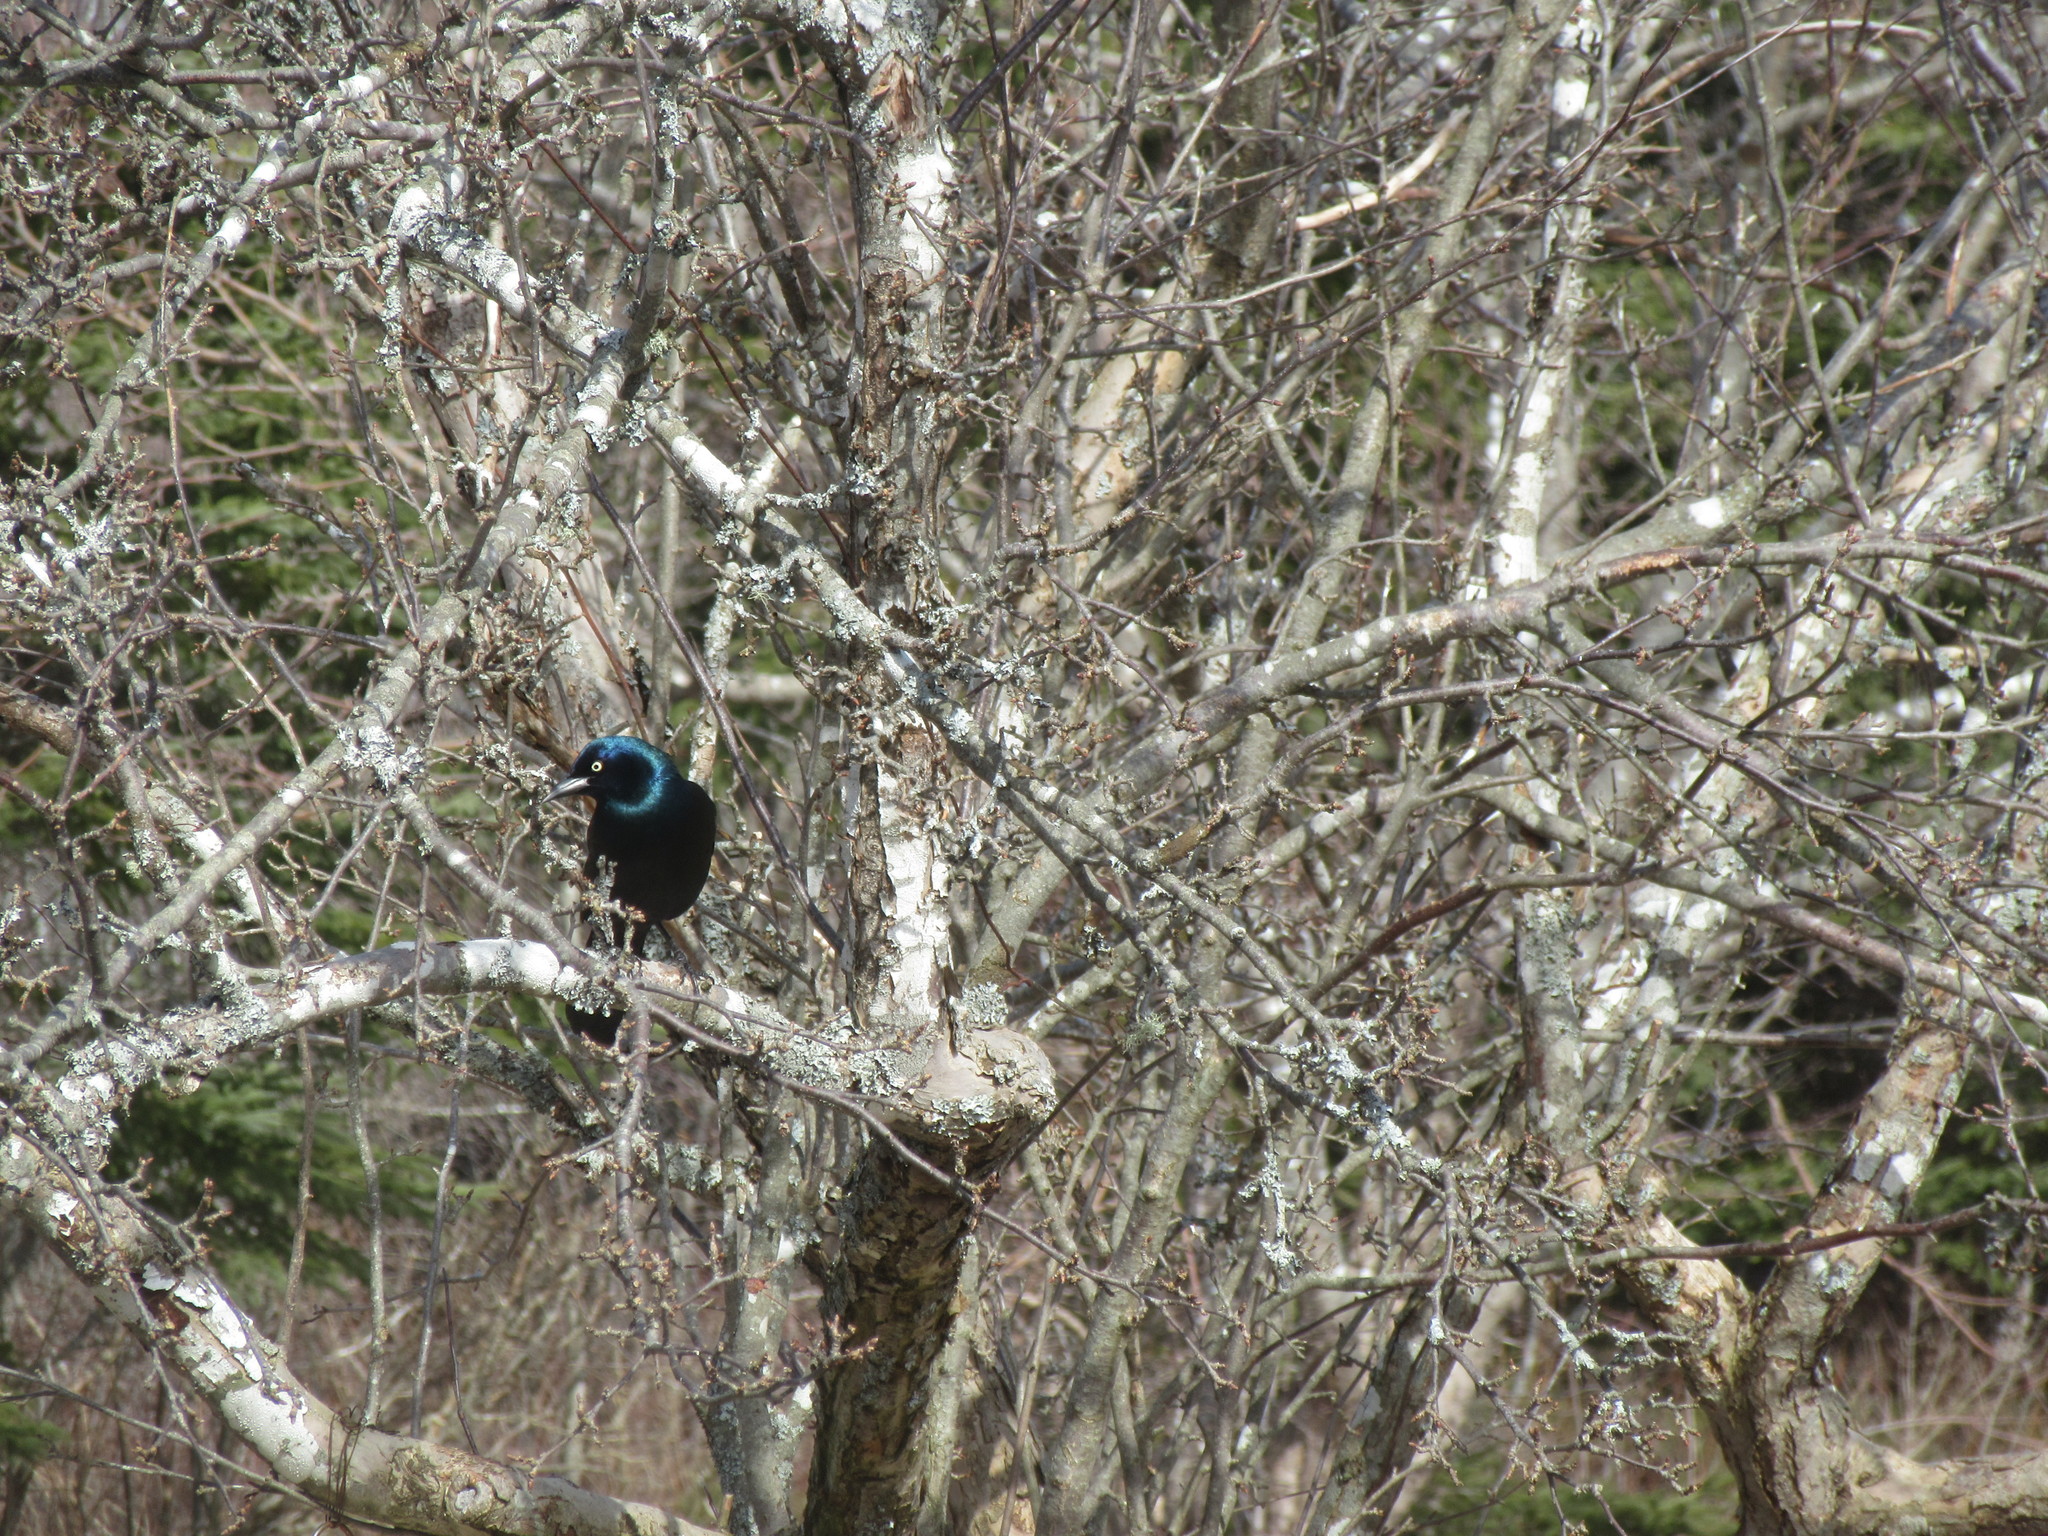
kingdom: Animalia
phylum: Chordata
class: Aves
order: Passeriformes
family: Icteridae
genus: Quiscalus
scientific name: Quiscalus quiscula
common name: Common grackle
